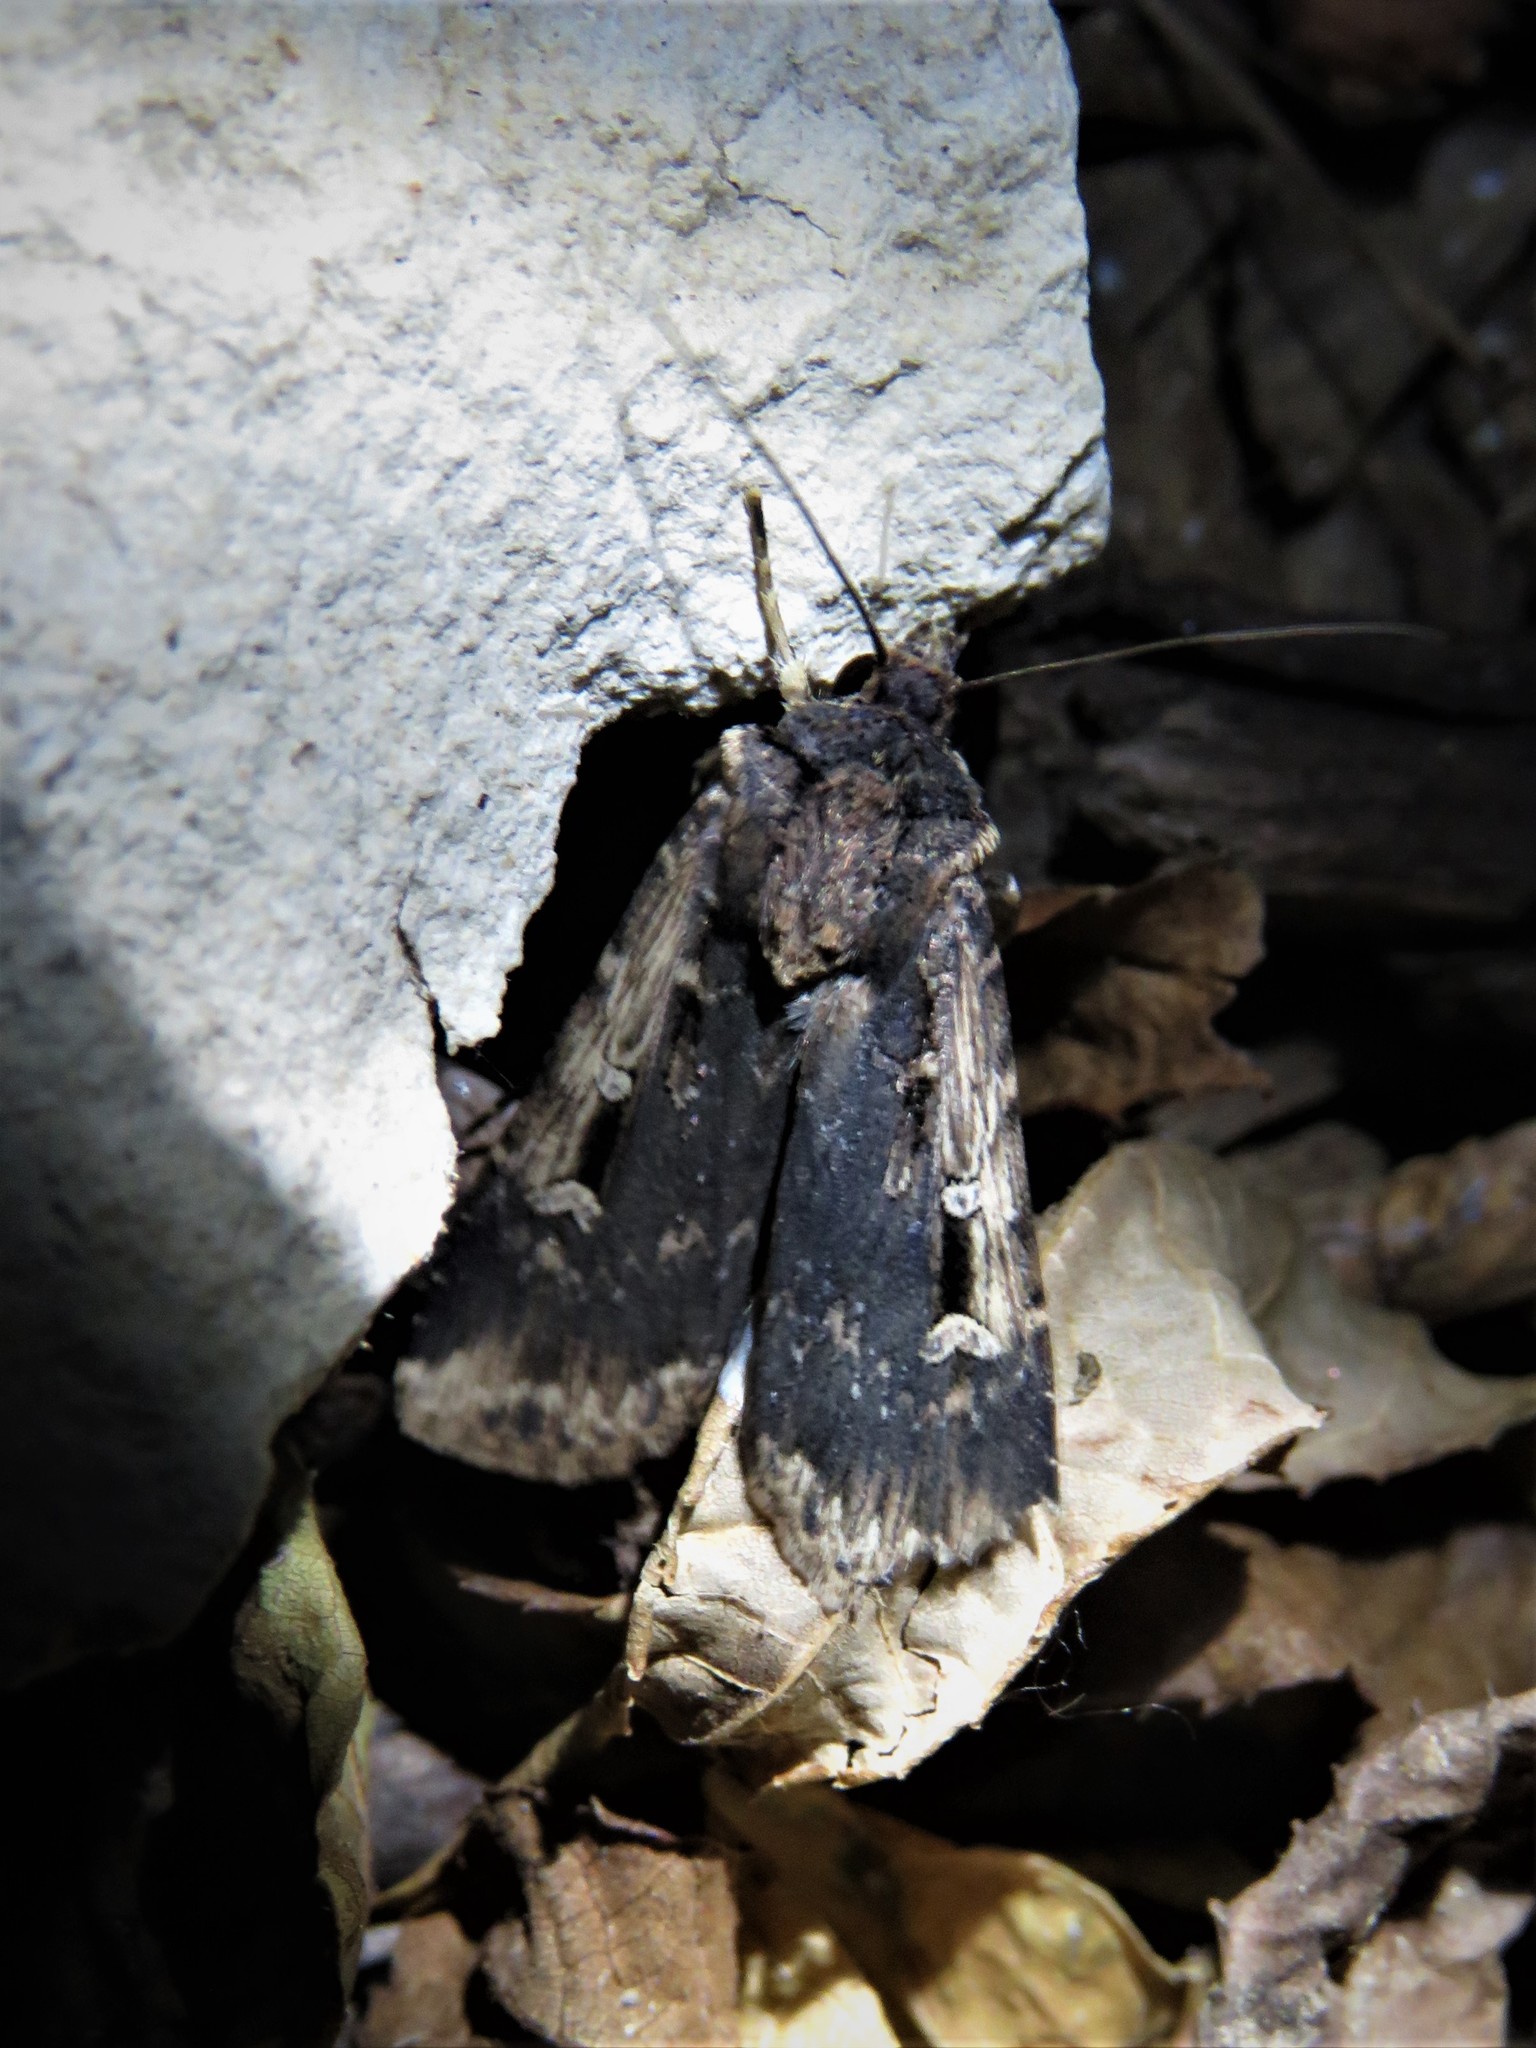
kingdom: Animalia
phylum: Arthropoda
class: Insecta
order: Lepidoptera
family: Noctuidae
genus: Feltia
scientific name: Feltia subterranea
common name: Granulate cutworm
